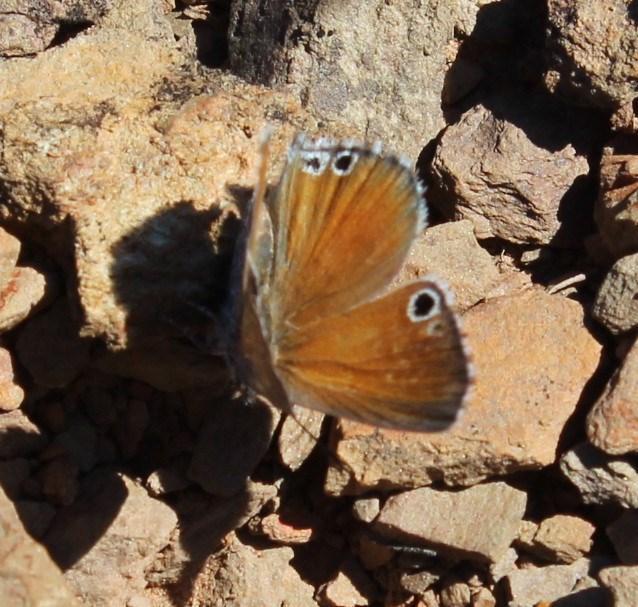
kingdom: Animalia
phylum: Arthropoda
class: Insecta
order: Lepidoptera
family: Lycaenidae
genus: Leptomyrina
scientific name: Leptomyrina lara
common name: Cape black-eye
